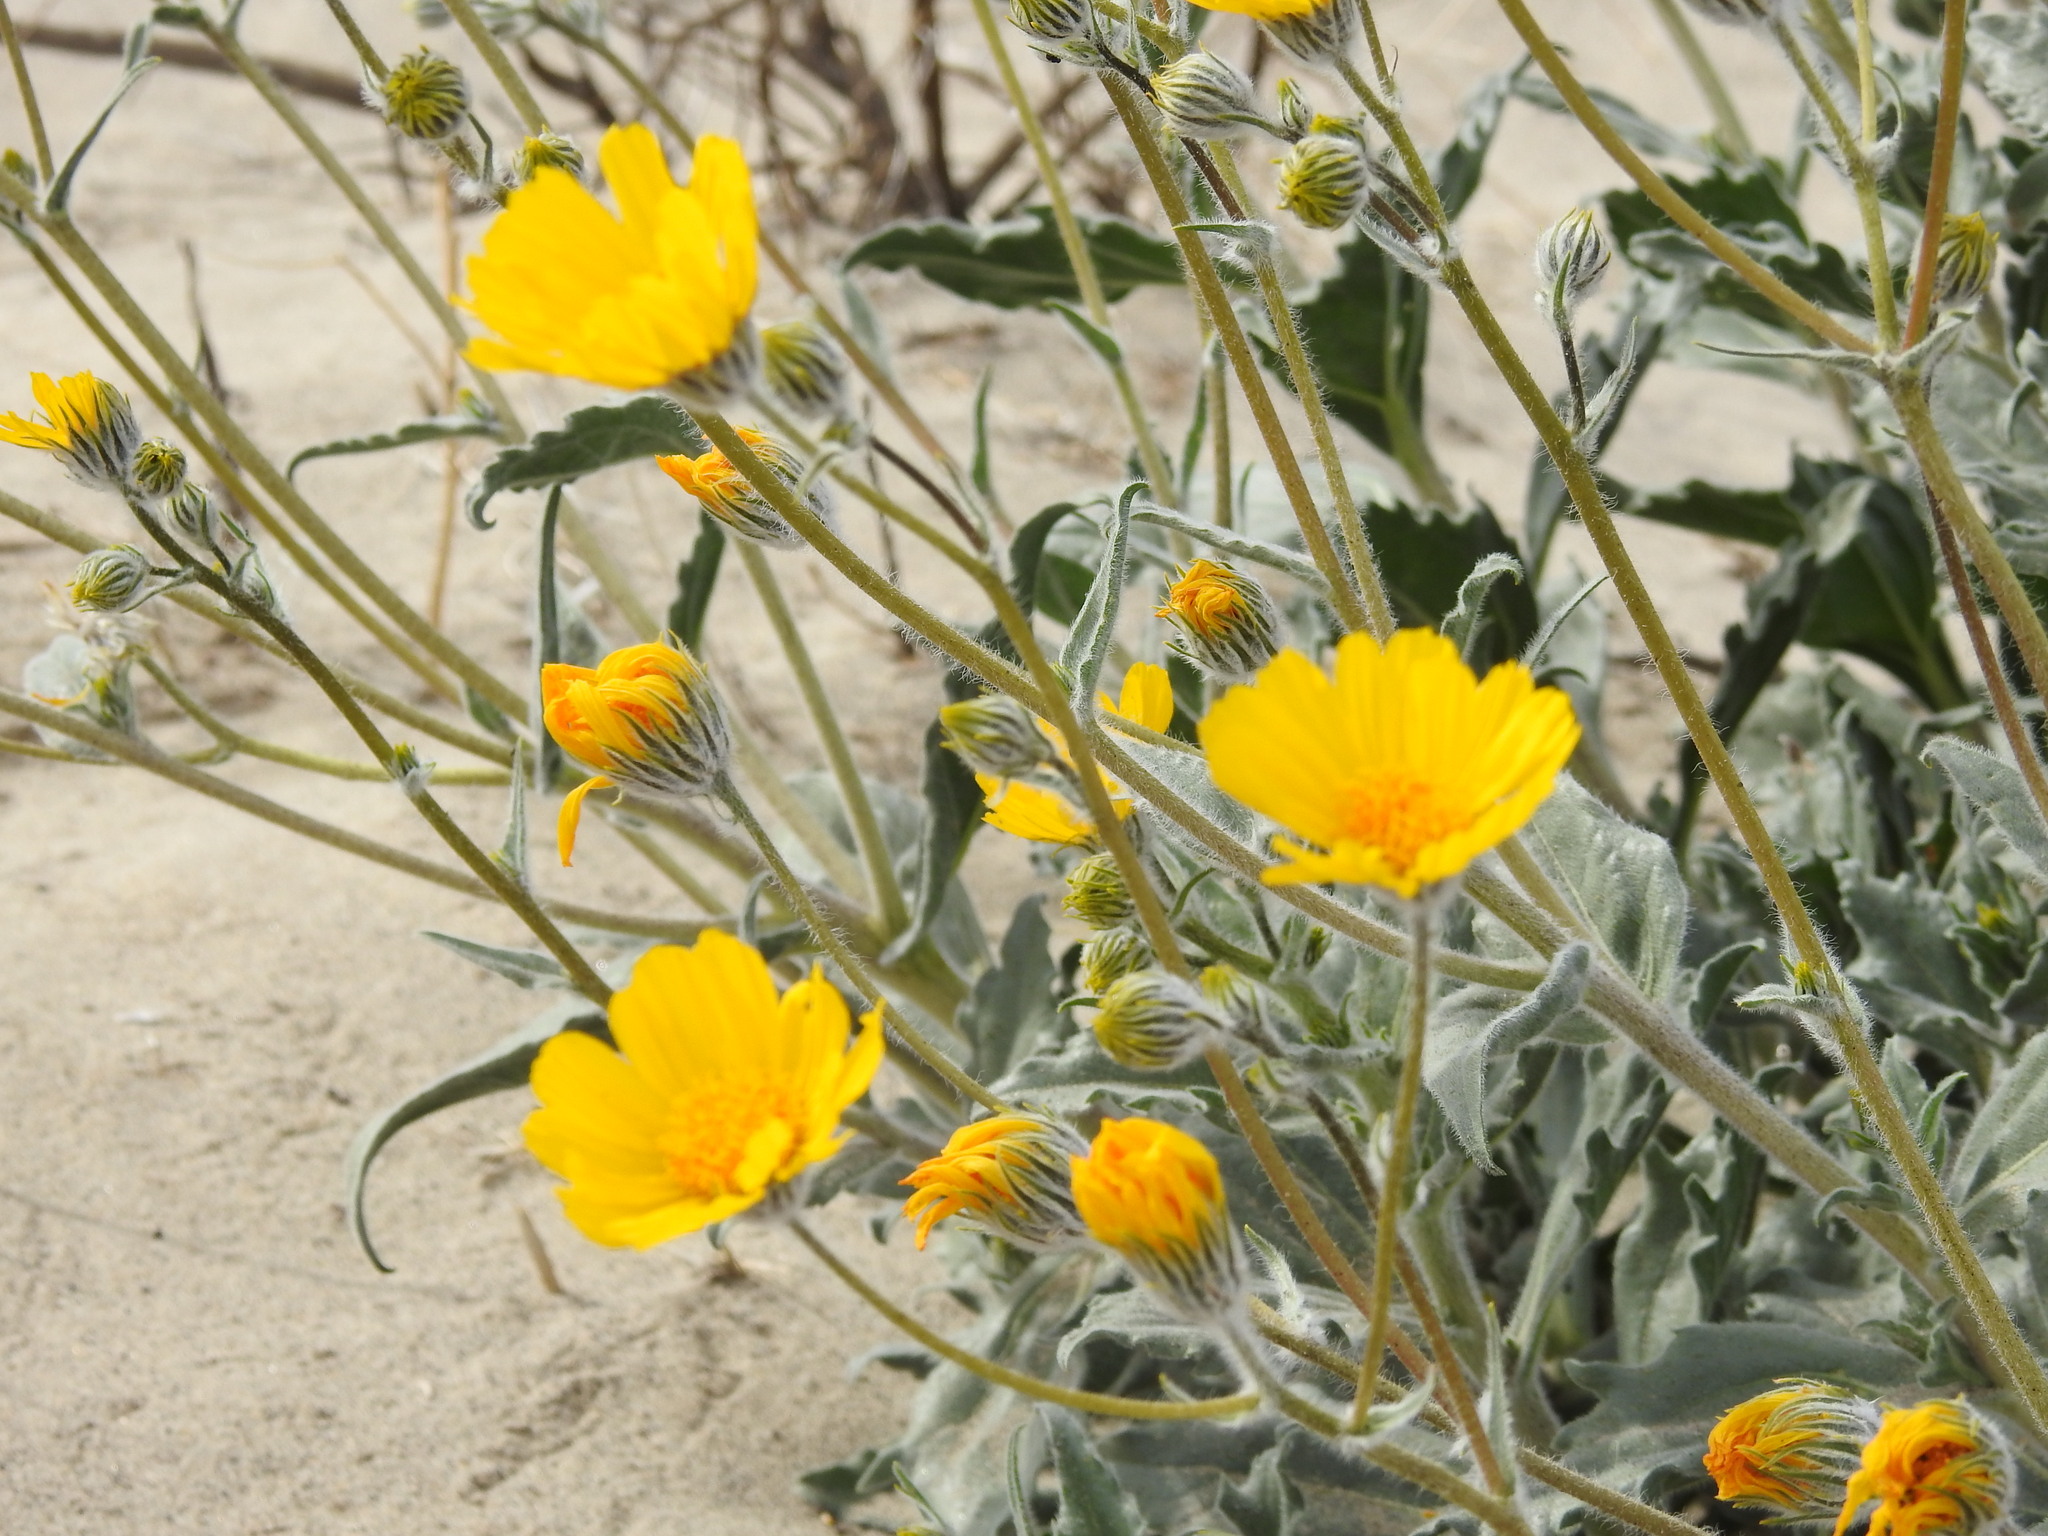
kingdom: Plantae
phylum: Tracheophyta
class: Magnoliopsida
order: Asterales
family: Asteraceae
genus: Geraea
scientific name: Geraea canescens
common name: Desert-gold
